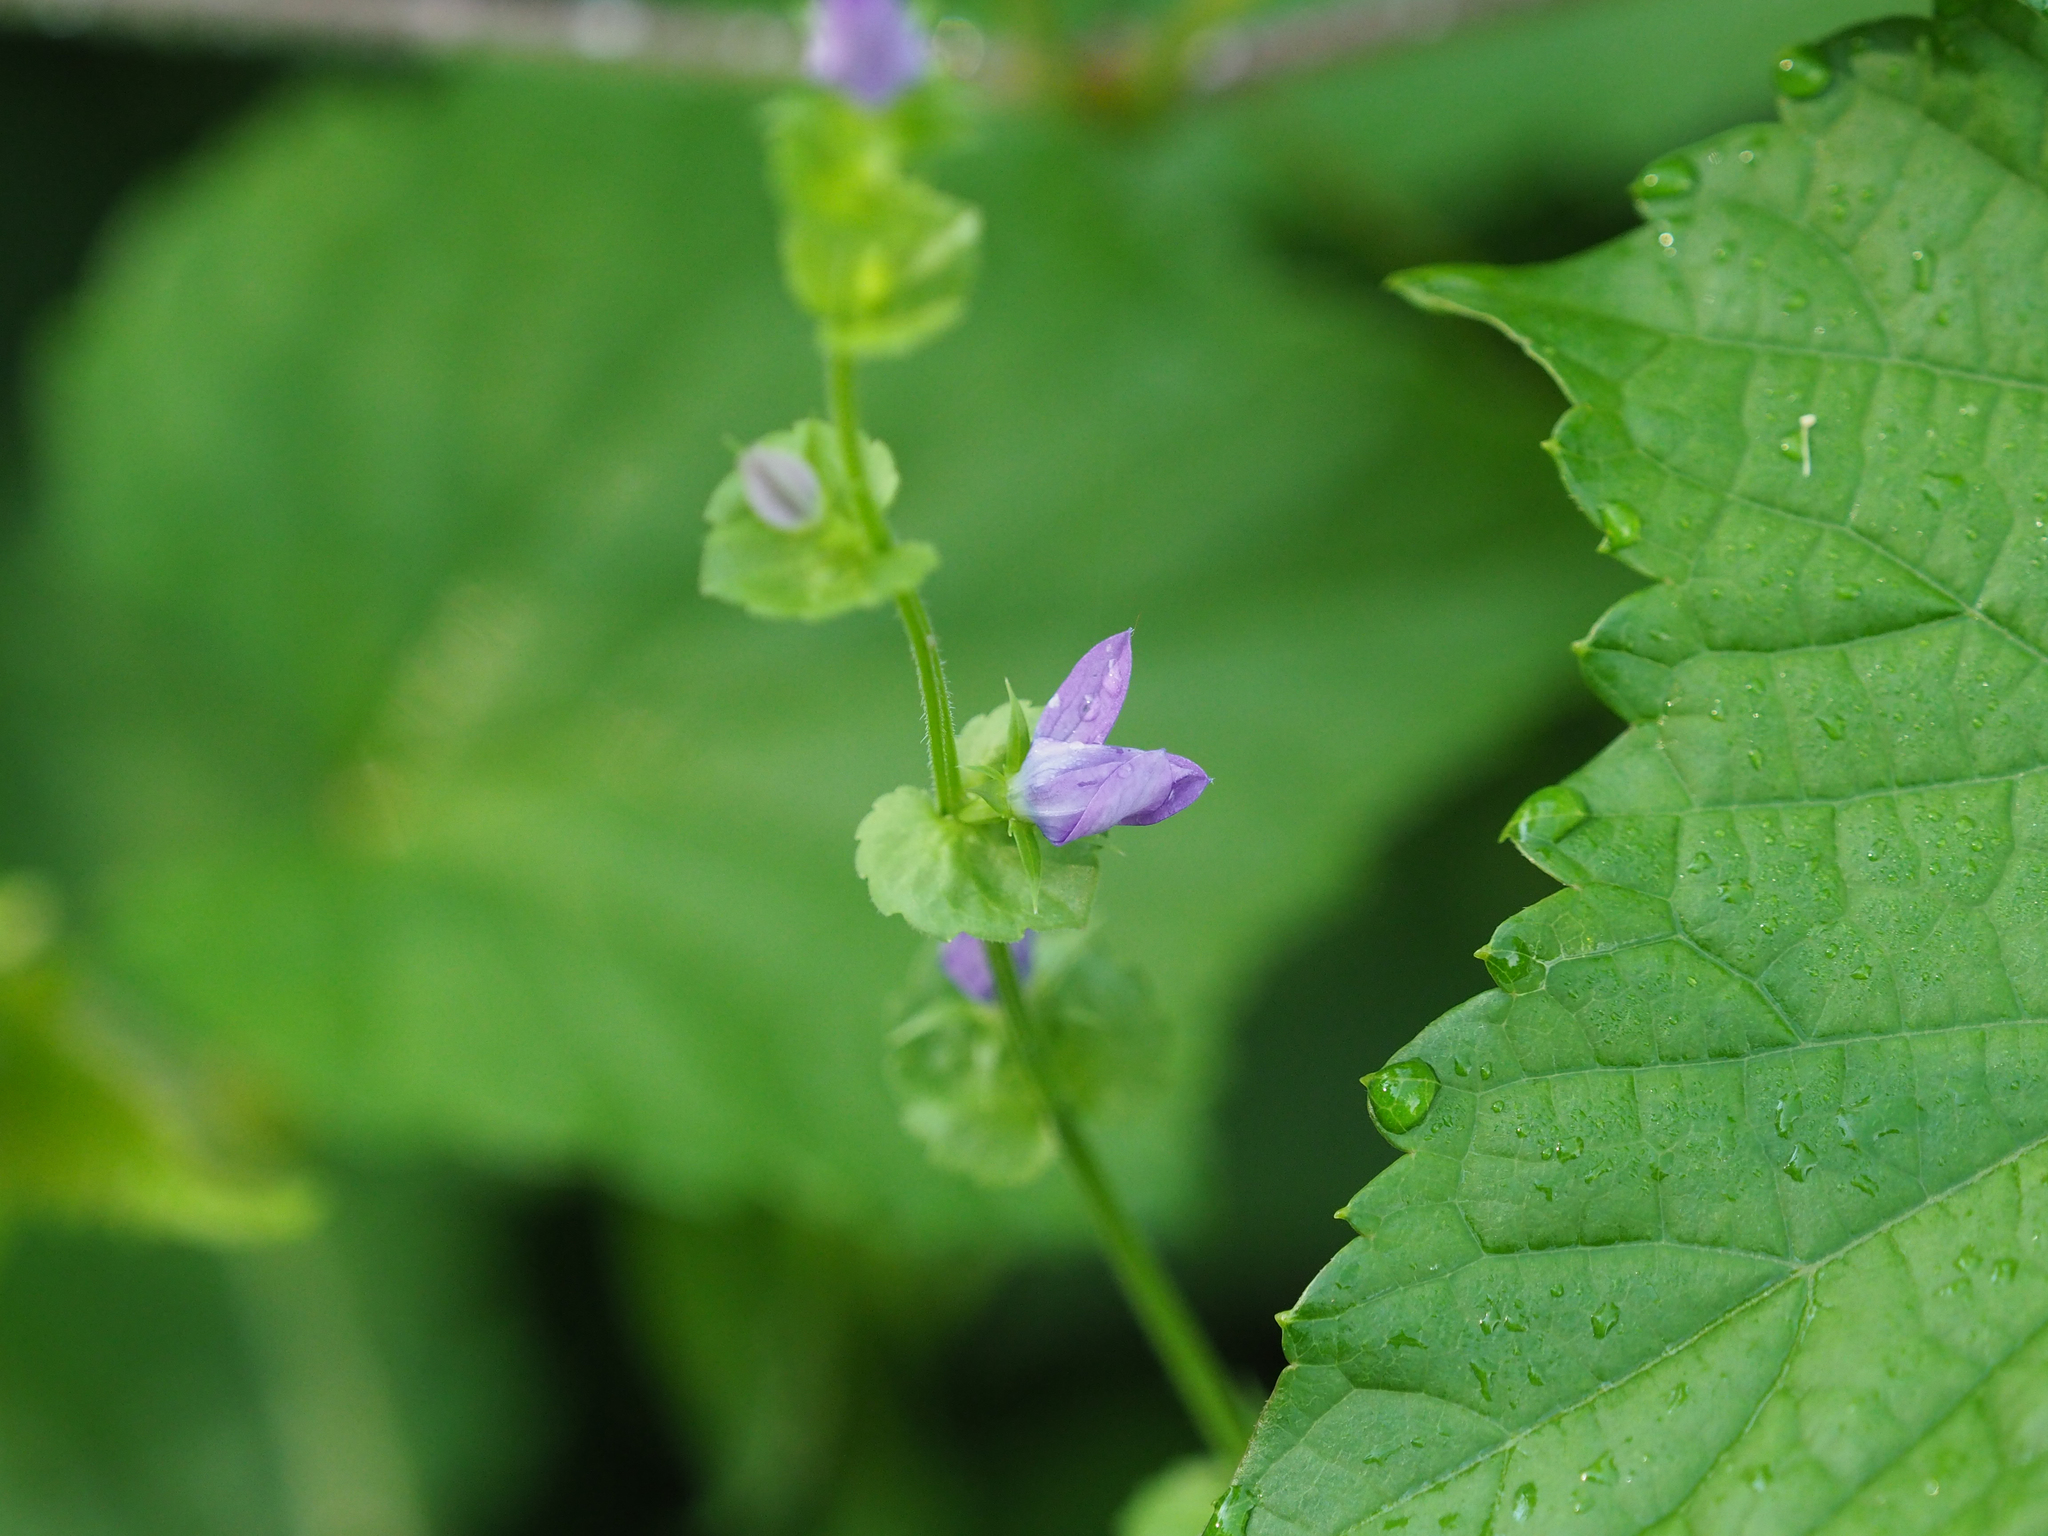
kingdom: Plantae
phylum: Tracheophyta
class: Magnoliopsida
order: Asterales
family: Campanulaceae
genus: Triodanis
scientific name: Triodanis perfoliata
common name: Clasping venus' looking-glass
